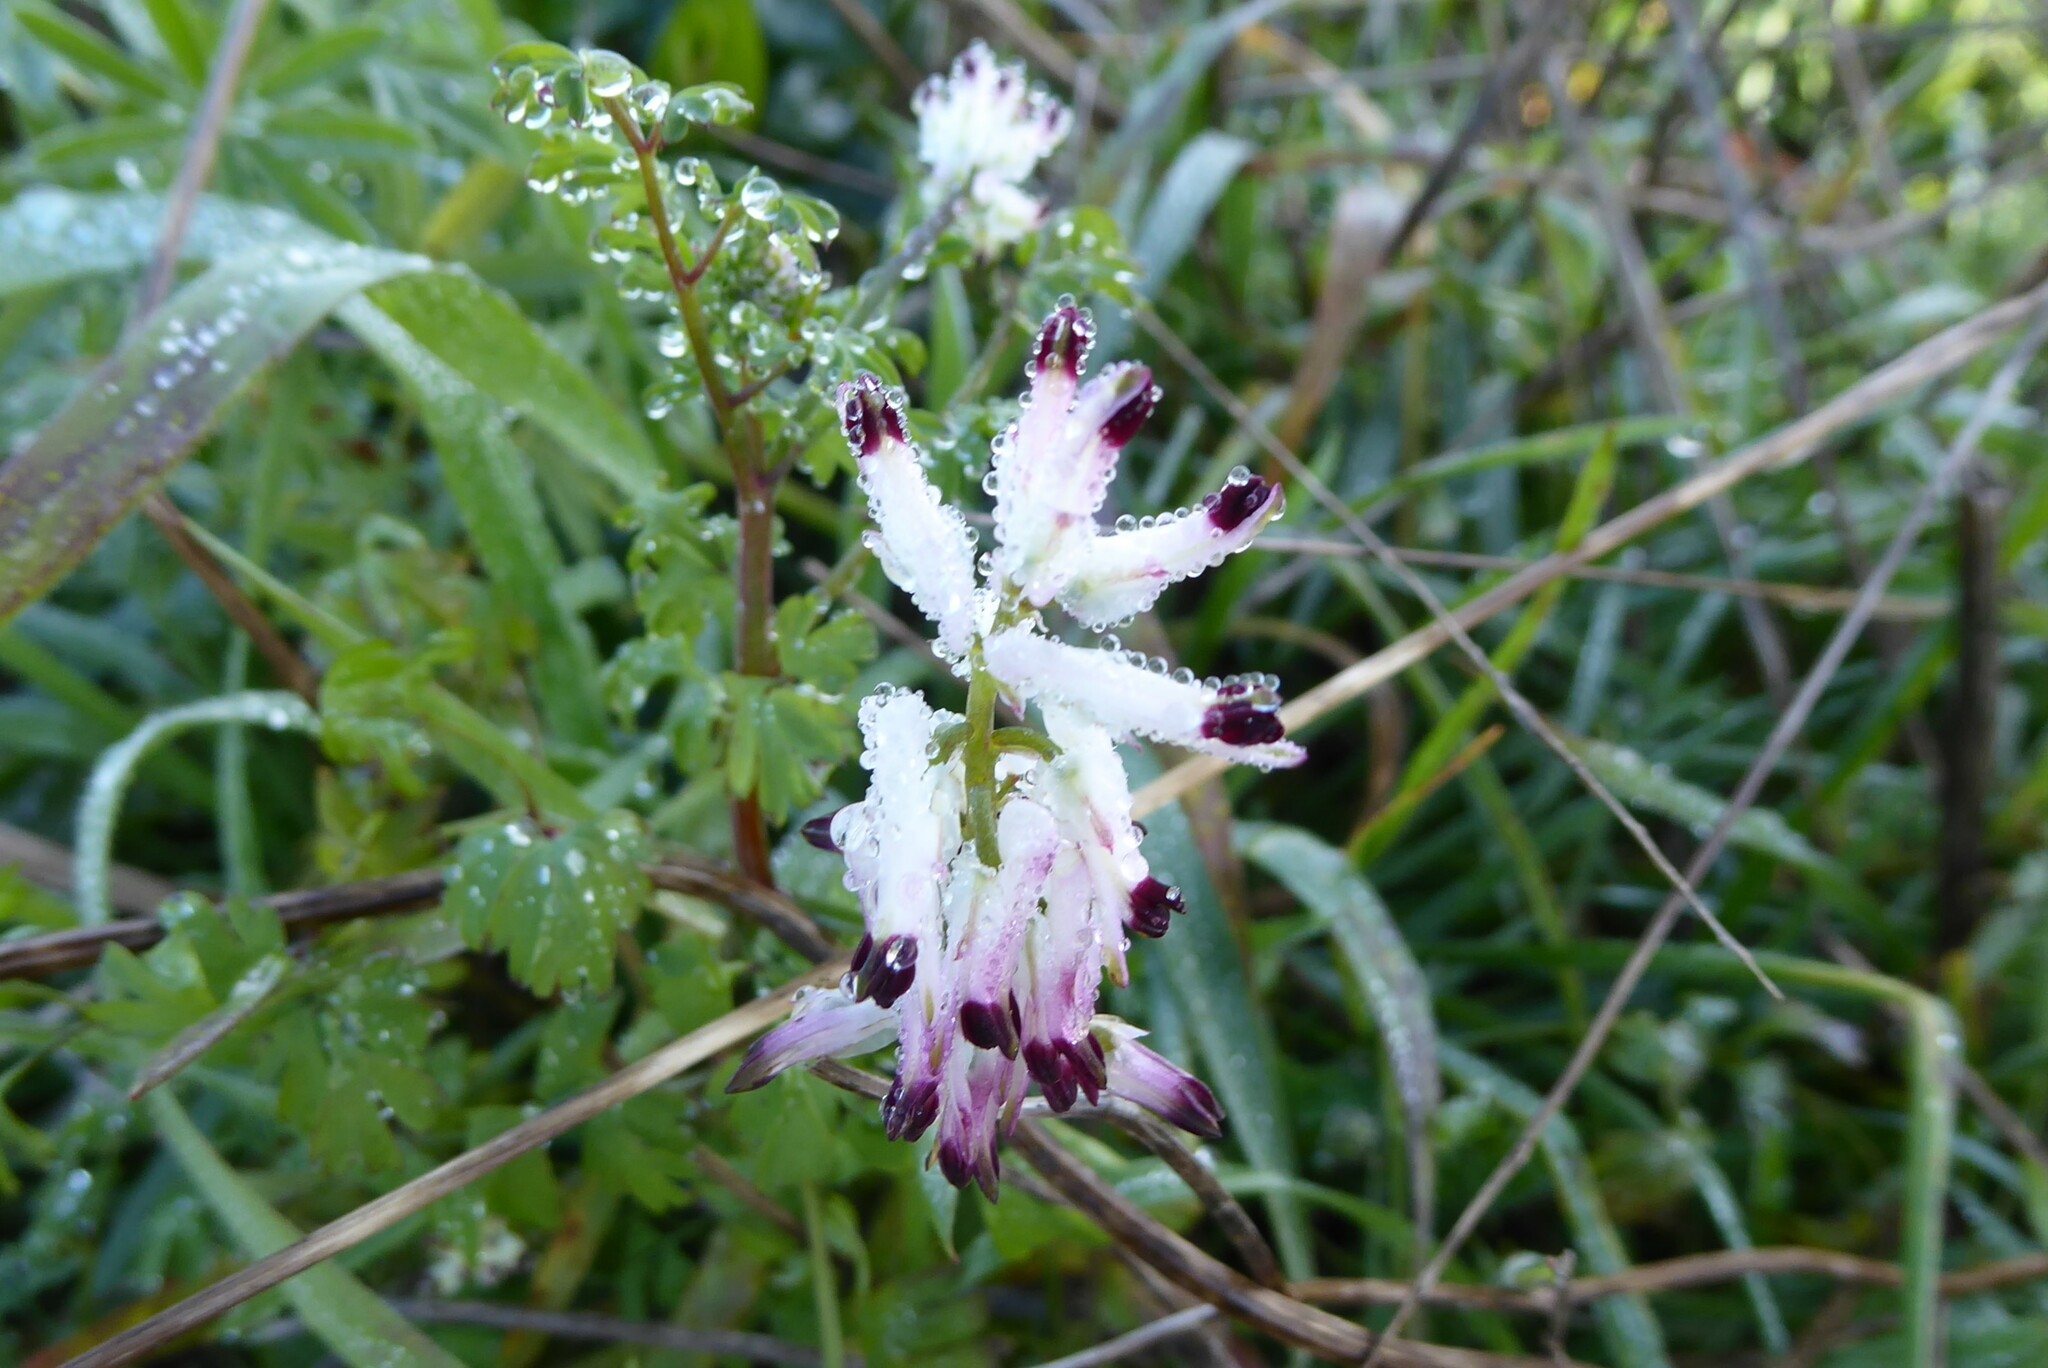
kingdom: Plantae
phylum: Tracheophyta
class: Magnoliopsida
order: Ranunculales
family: Papaveraceae
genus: Fumaria
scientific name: Fumaria capreolata
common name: White ramping-fumitory
